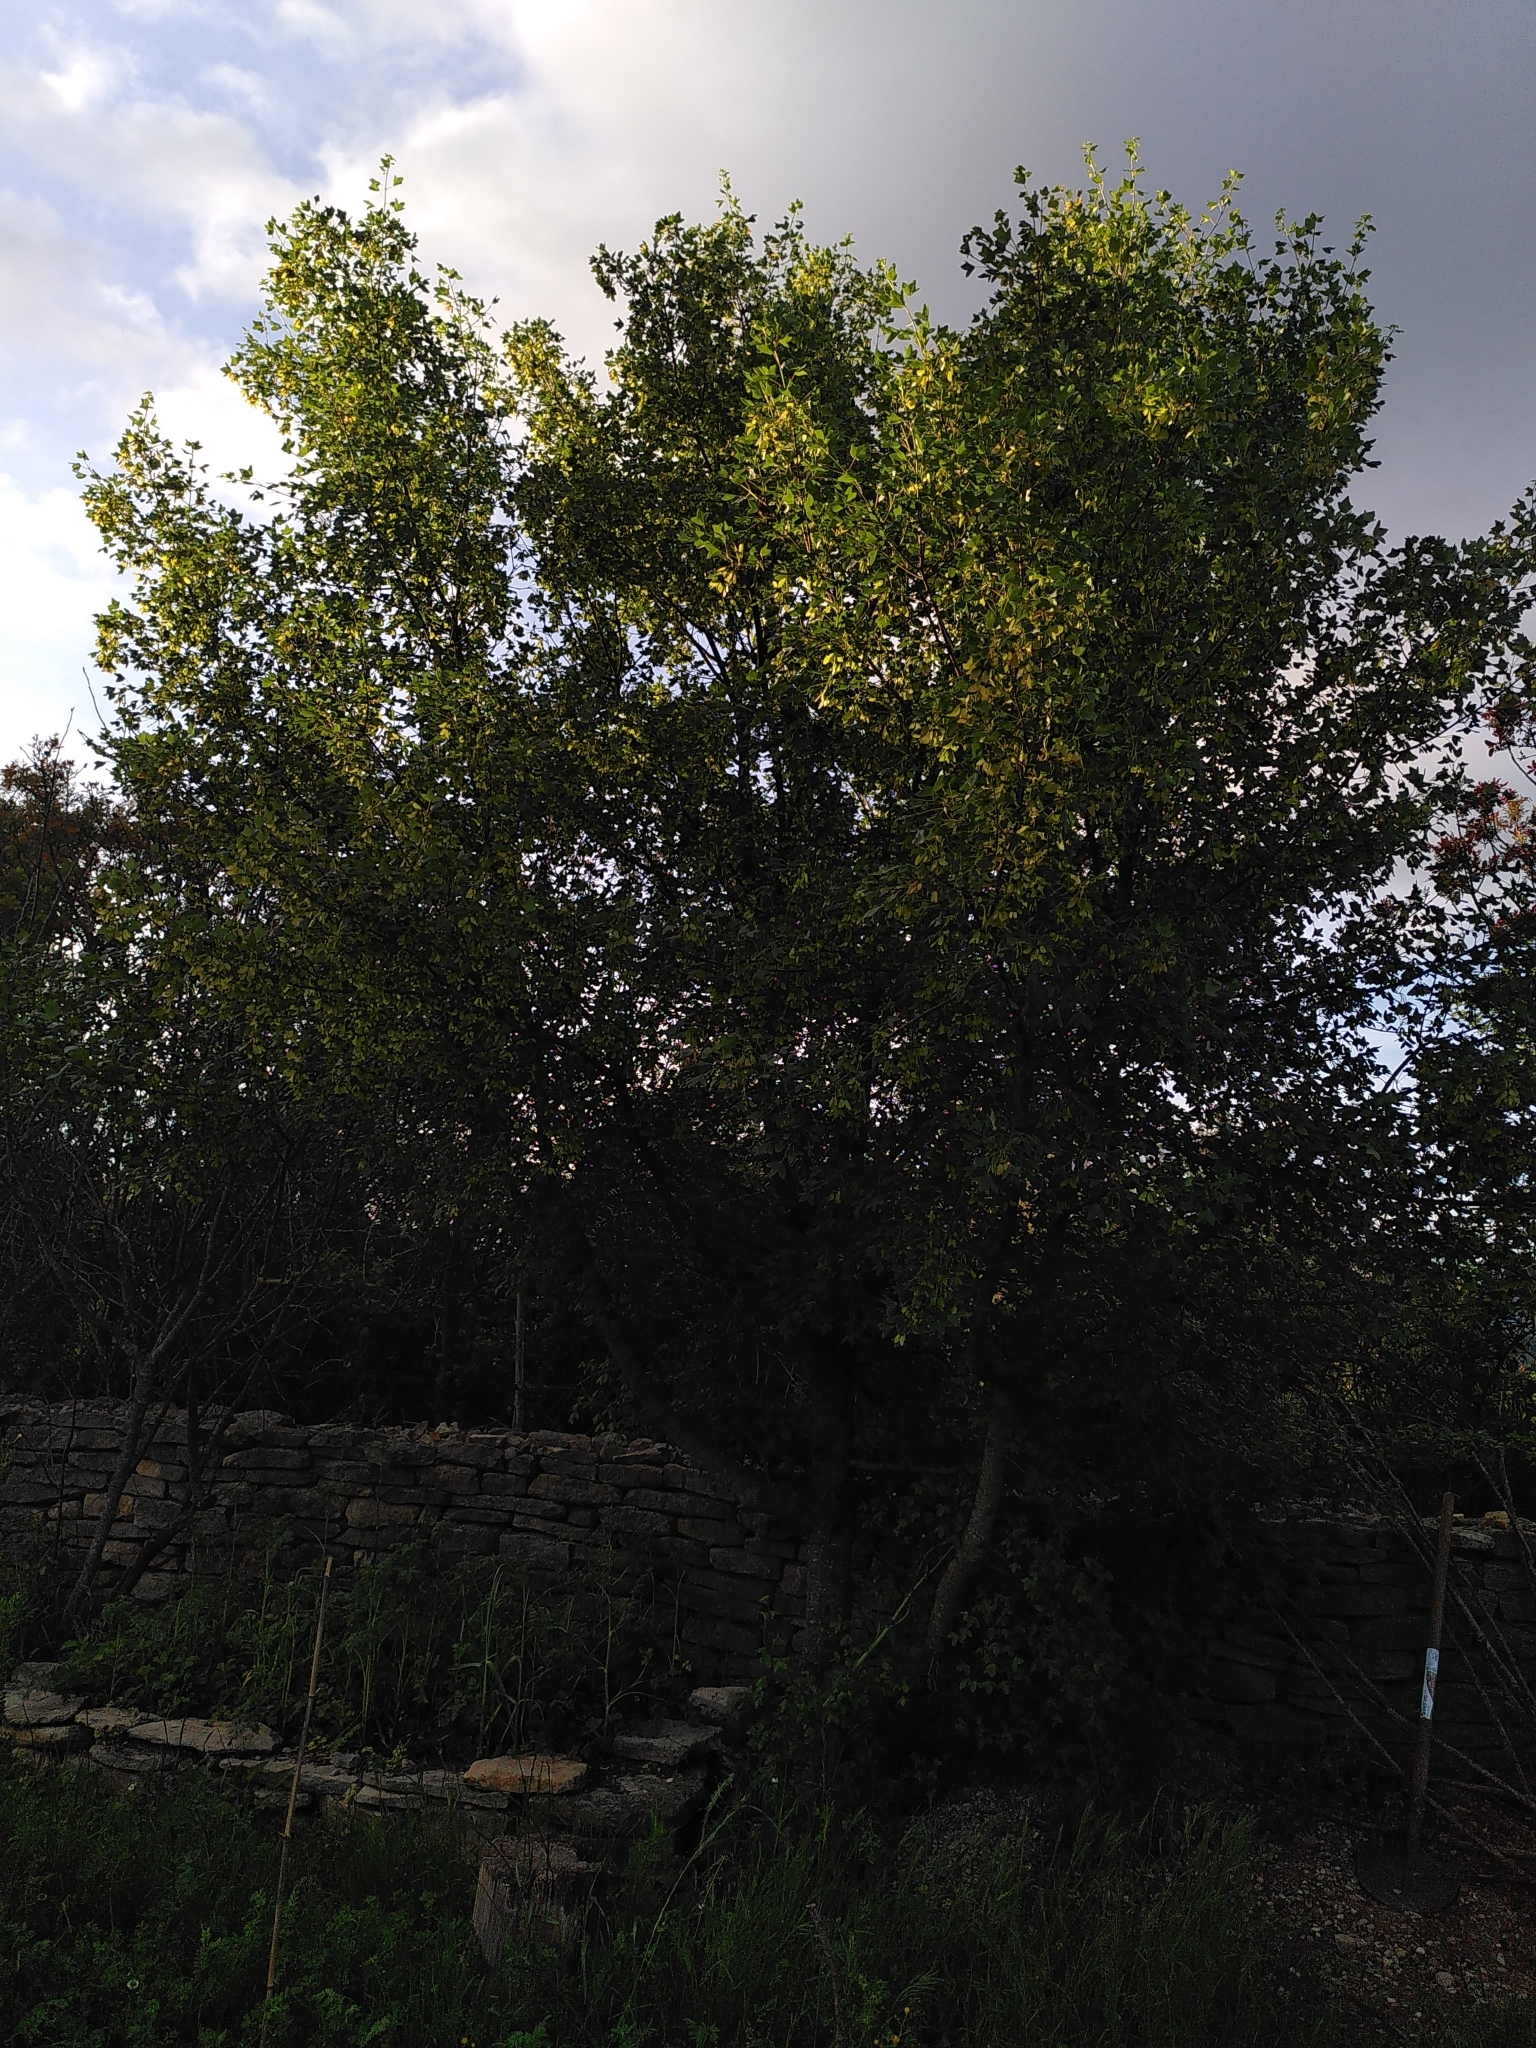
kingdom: Plantae
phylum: Tracheophyta
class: Magnoliopsida
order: Sapindales
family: Sapindaceae
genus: Acer
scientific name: Acer monspessulanum
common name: Montpellier maple
